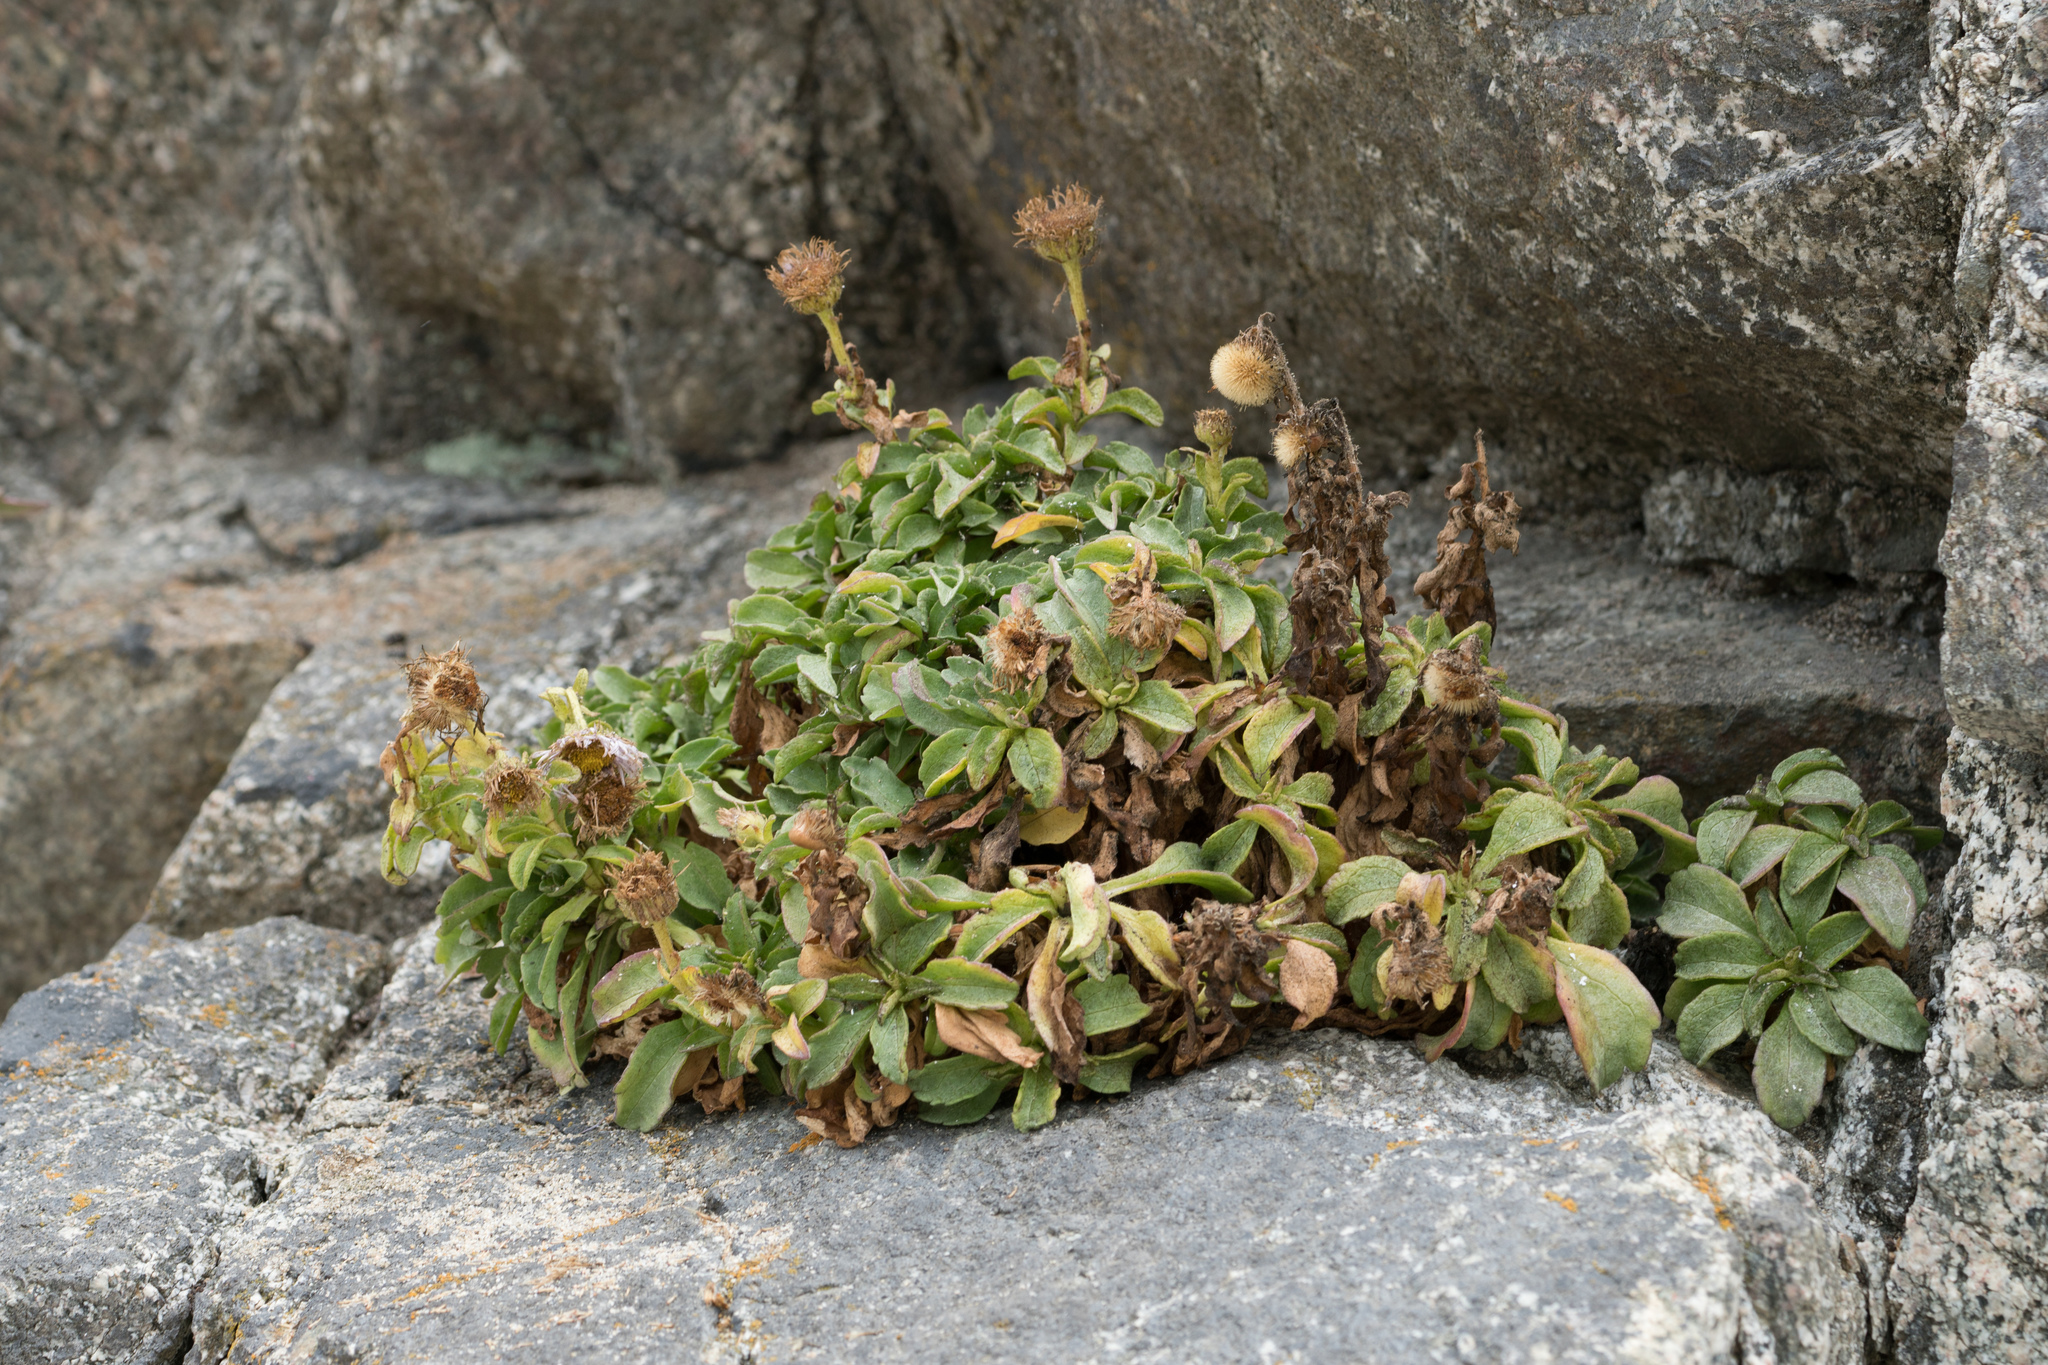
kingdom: Plantae
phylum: Tracheophyta
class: Magnoliopsida
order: Asterales
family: Asteraceae
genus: Erigeron
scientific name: Erigeron glaucus
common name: Seaside daisy
